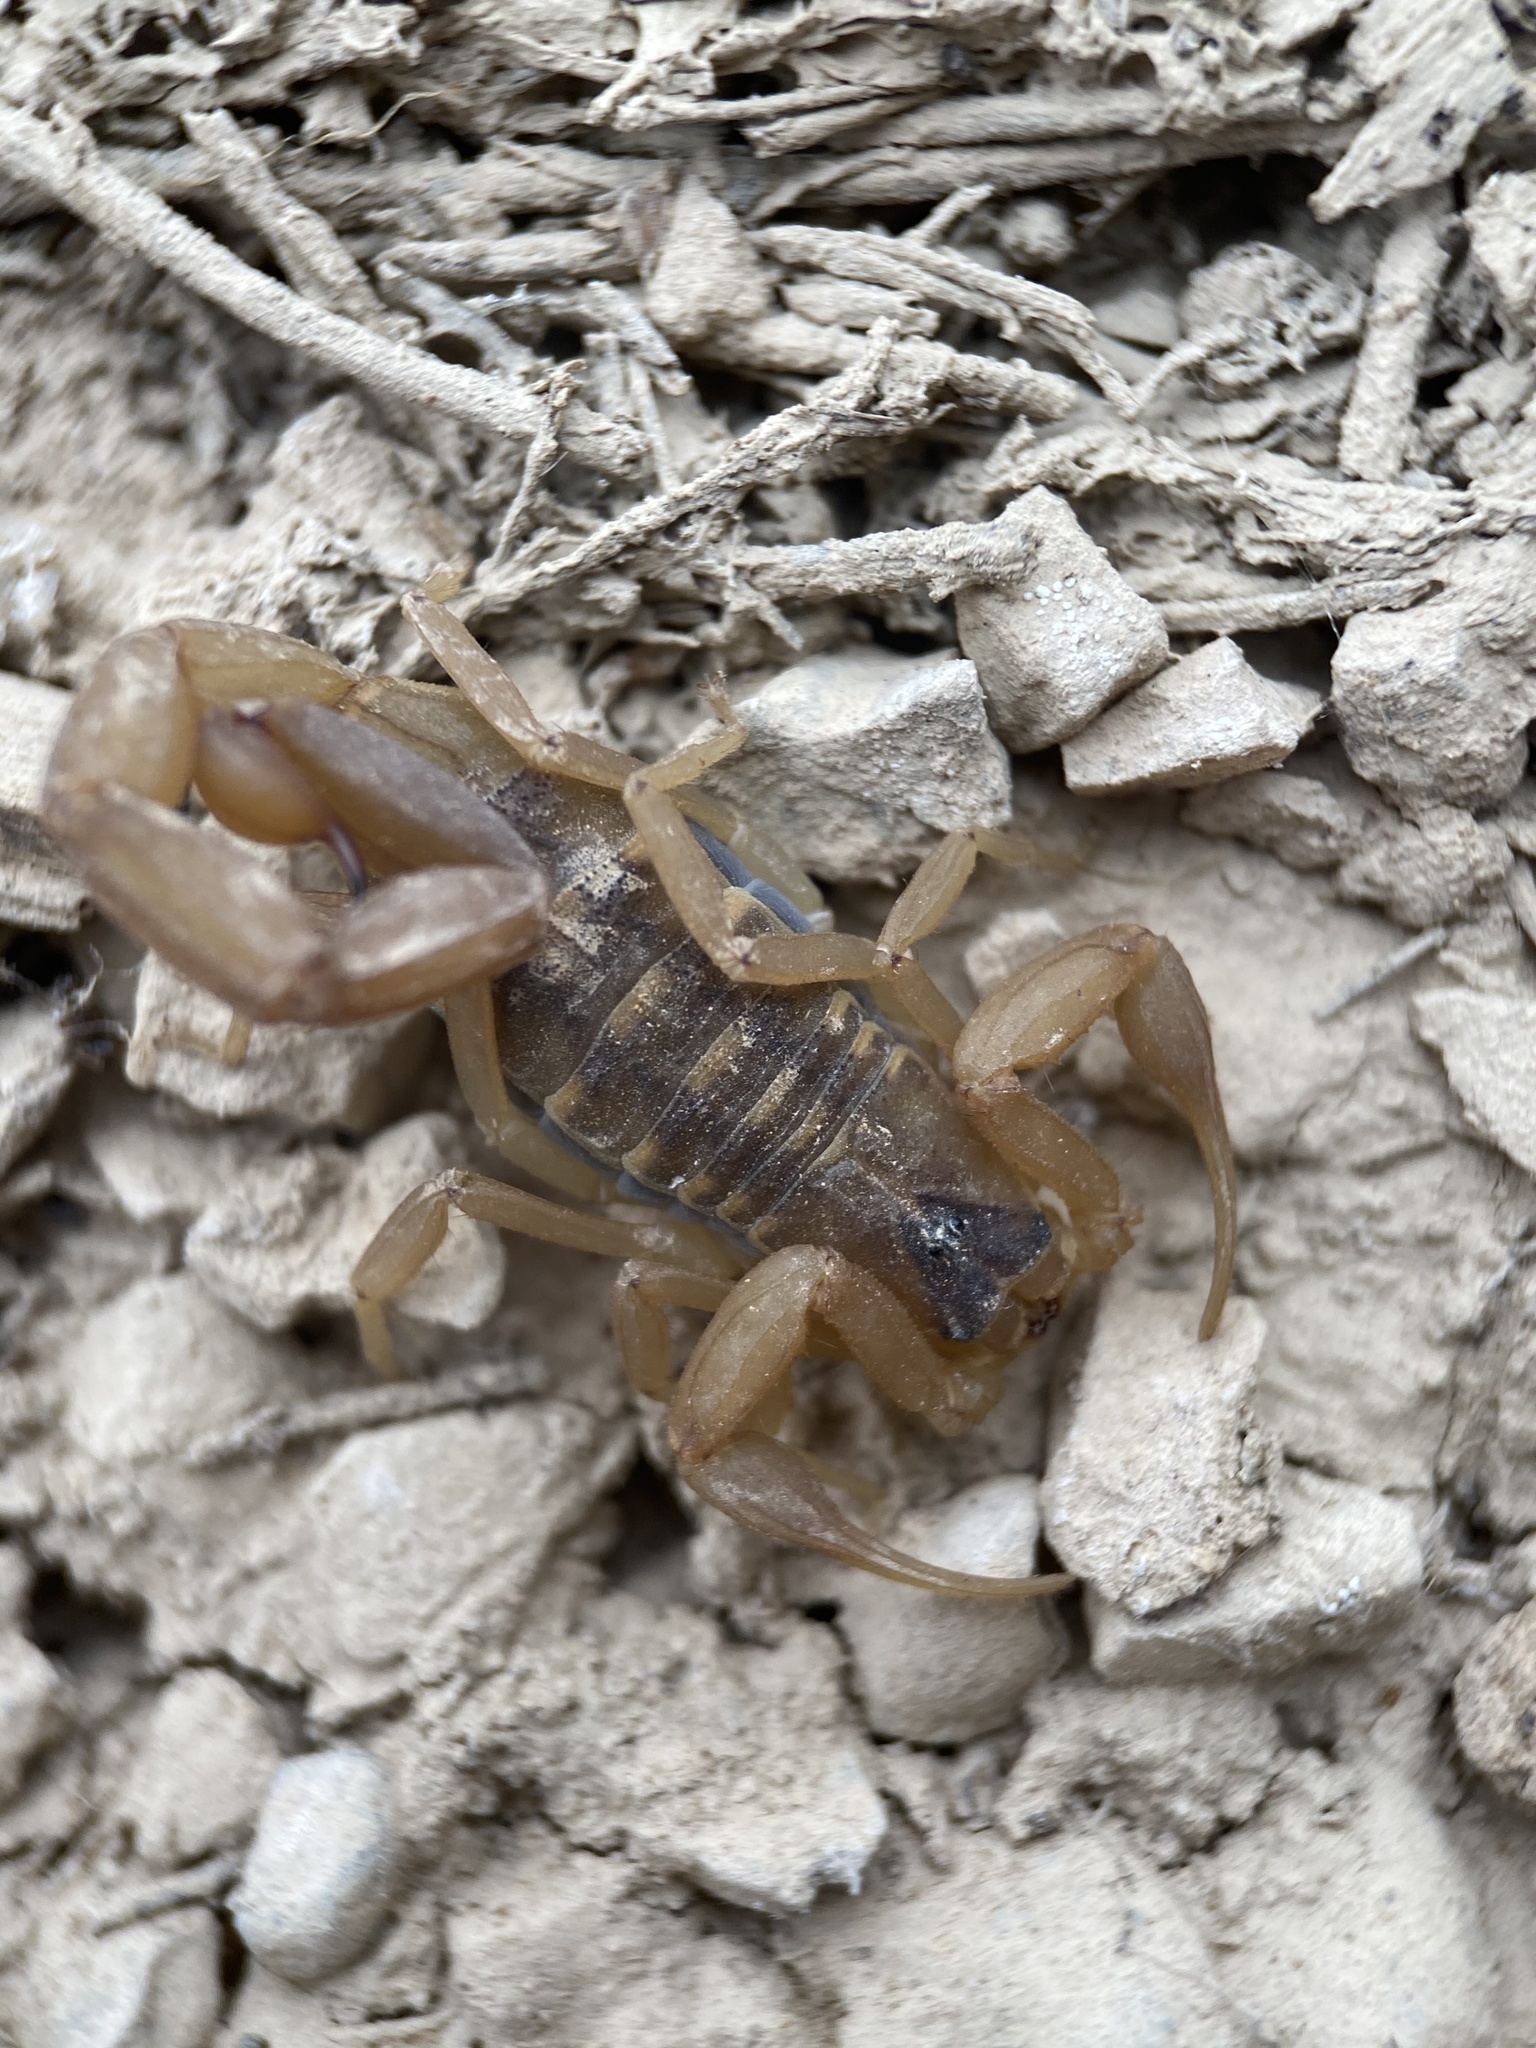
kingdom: Animalia
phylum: Arthropoda
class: Arachnida
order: Scorpiones
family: Buthidae
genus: Centruroides
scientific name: Centruroides vittatus
